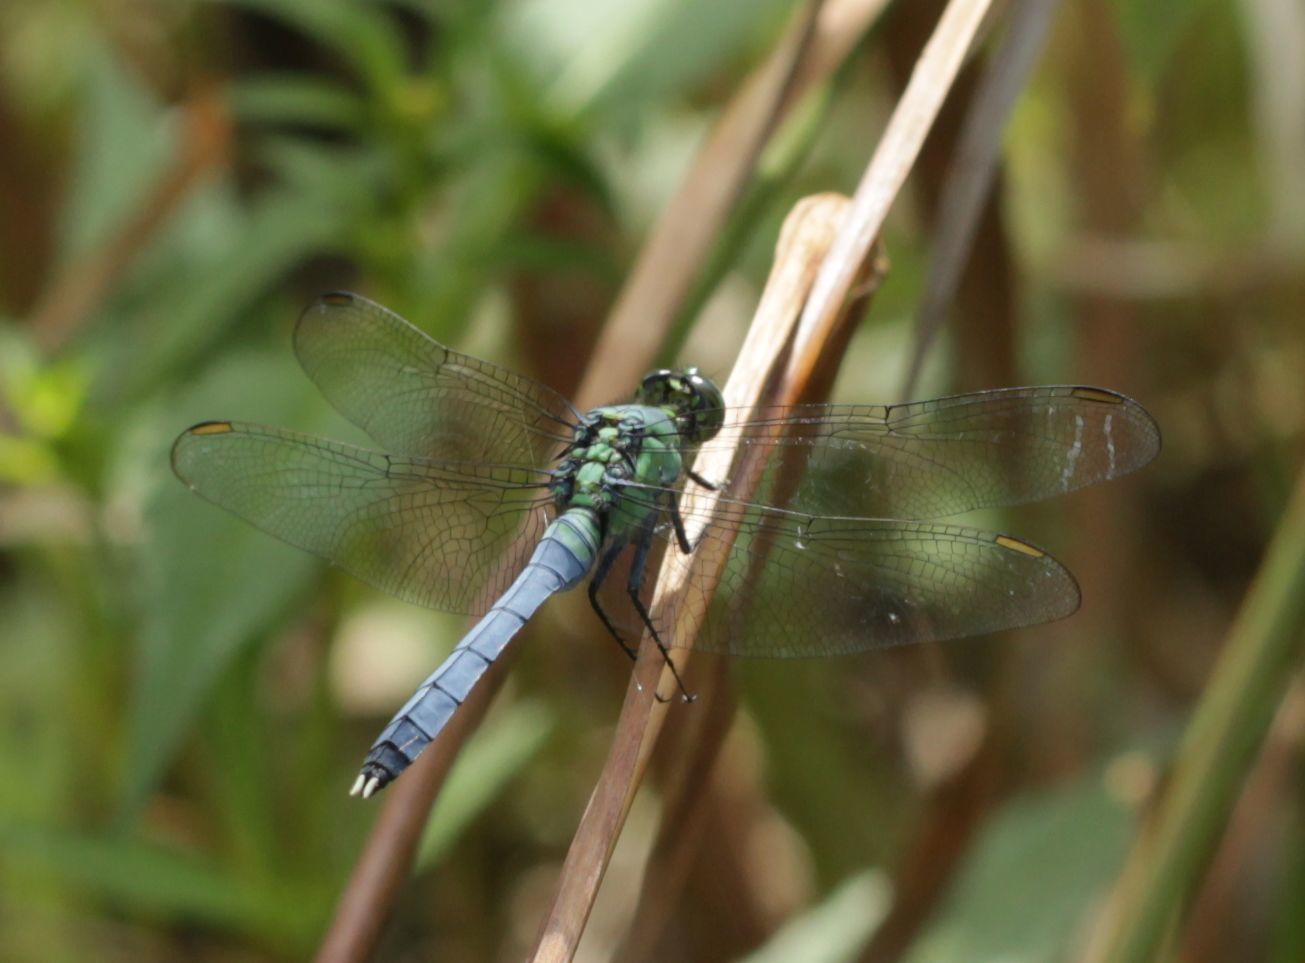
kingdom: Animalia
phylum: Arthropoda
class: Insecta
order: Odonata
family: Libellulidae
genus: Erythemis
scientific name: Erythemis simplicicollis
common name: Eastern pondhawk
